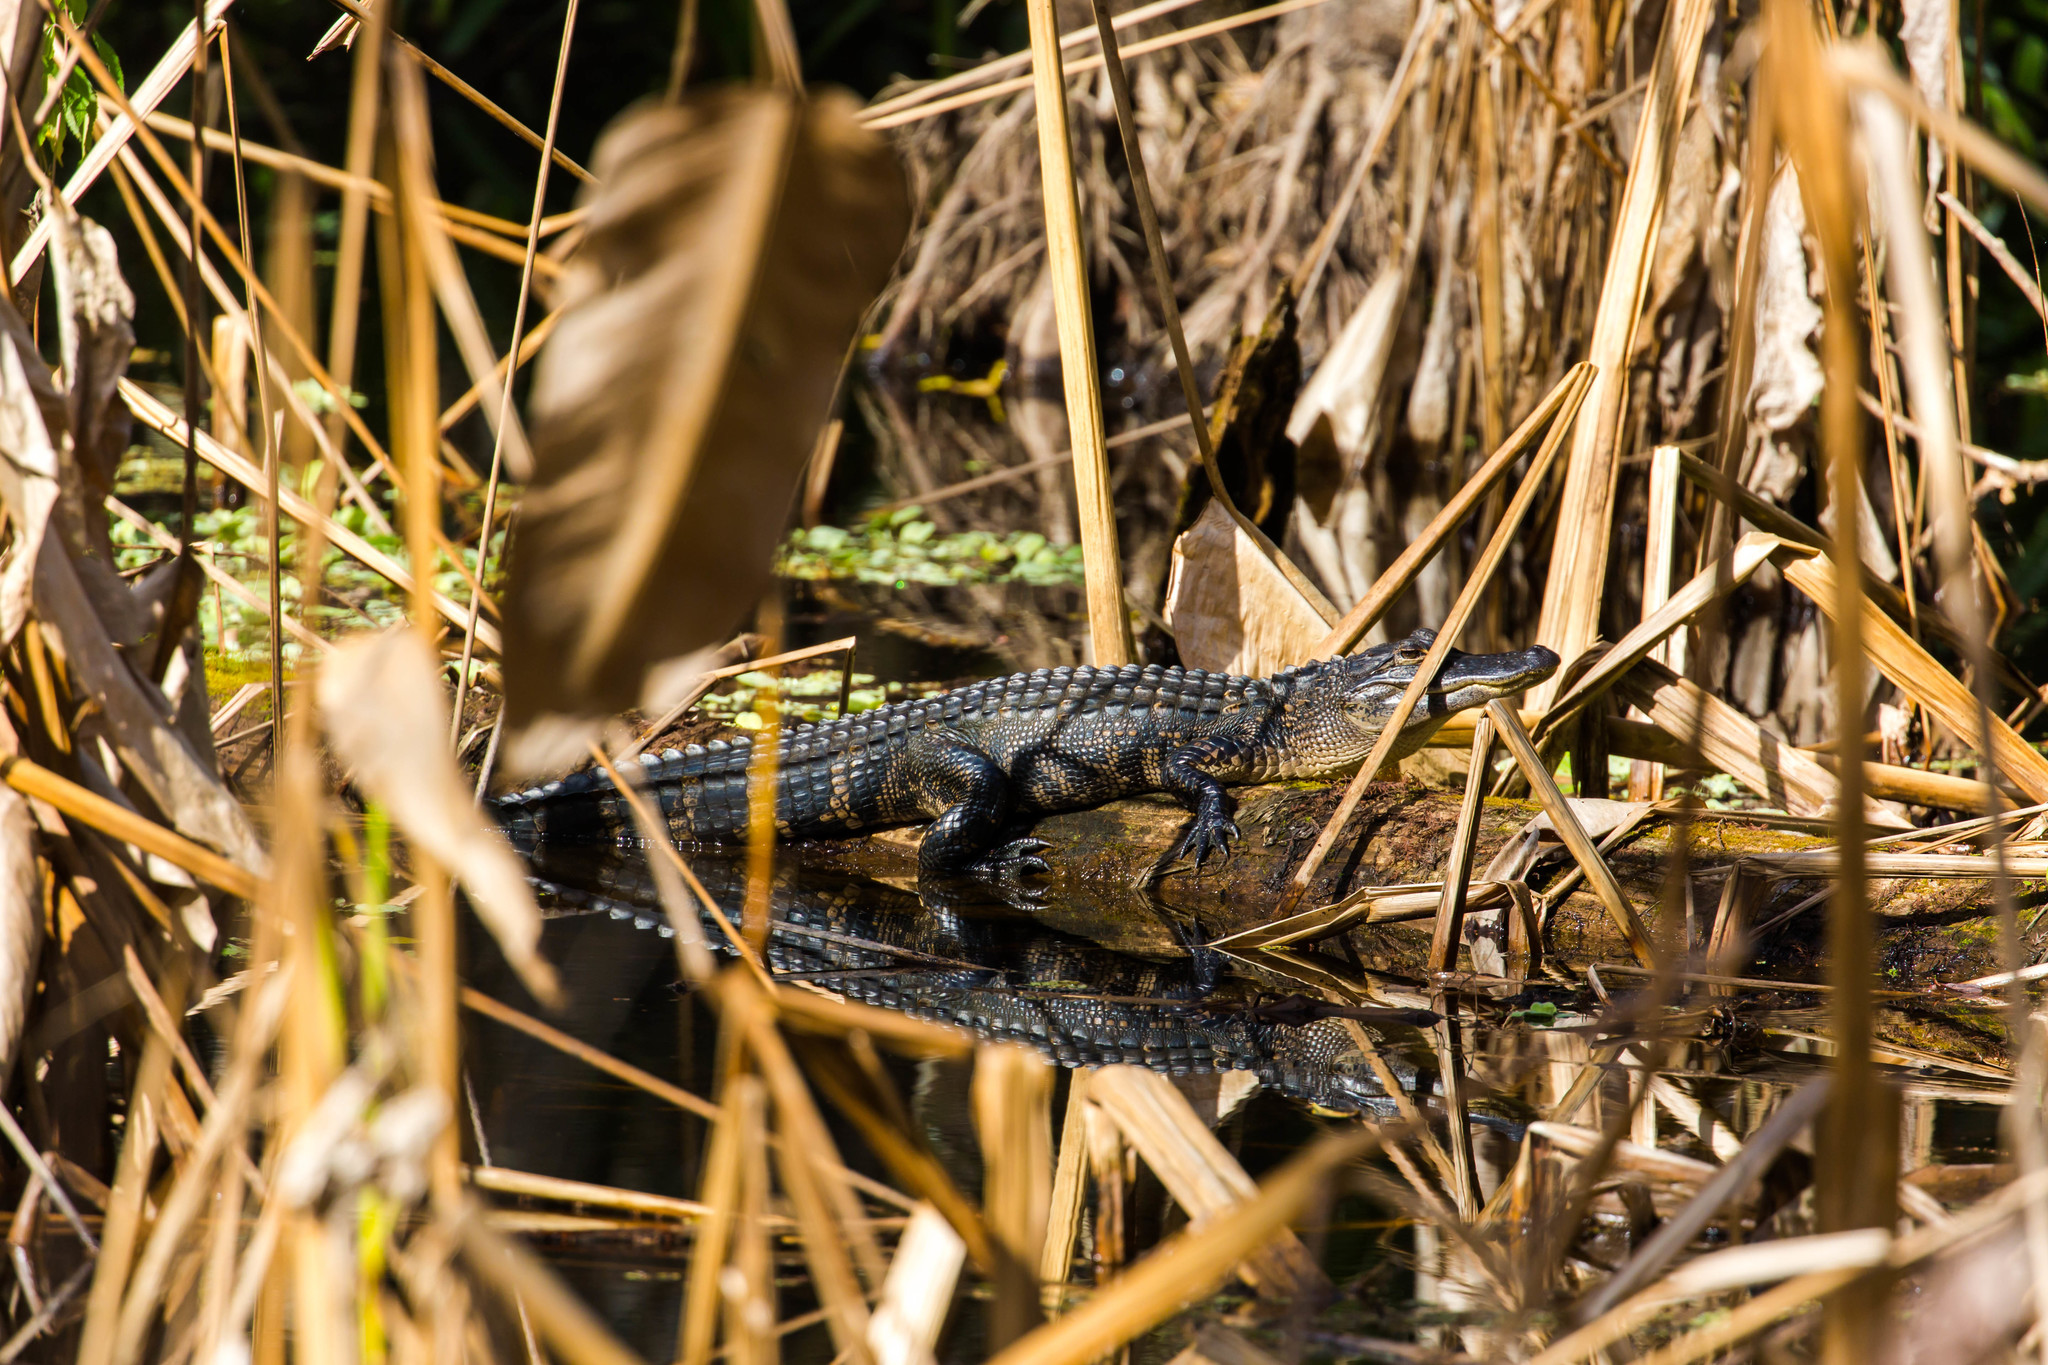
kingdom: Animalia
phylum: Chordata
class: Crocodylia
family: Alligatoridae
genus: Alligator
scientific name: Alligator mississippiensis
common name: American alligator
